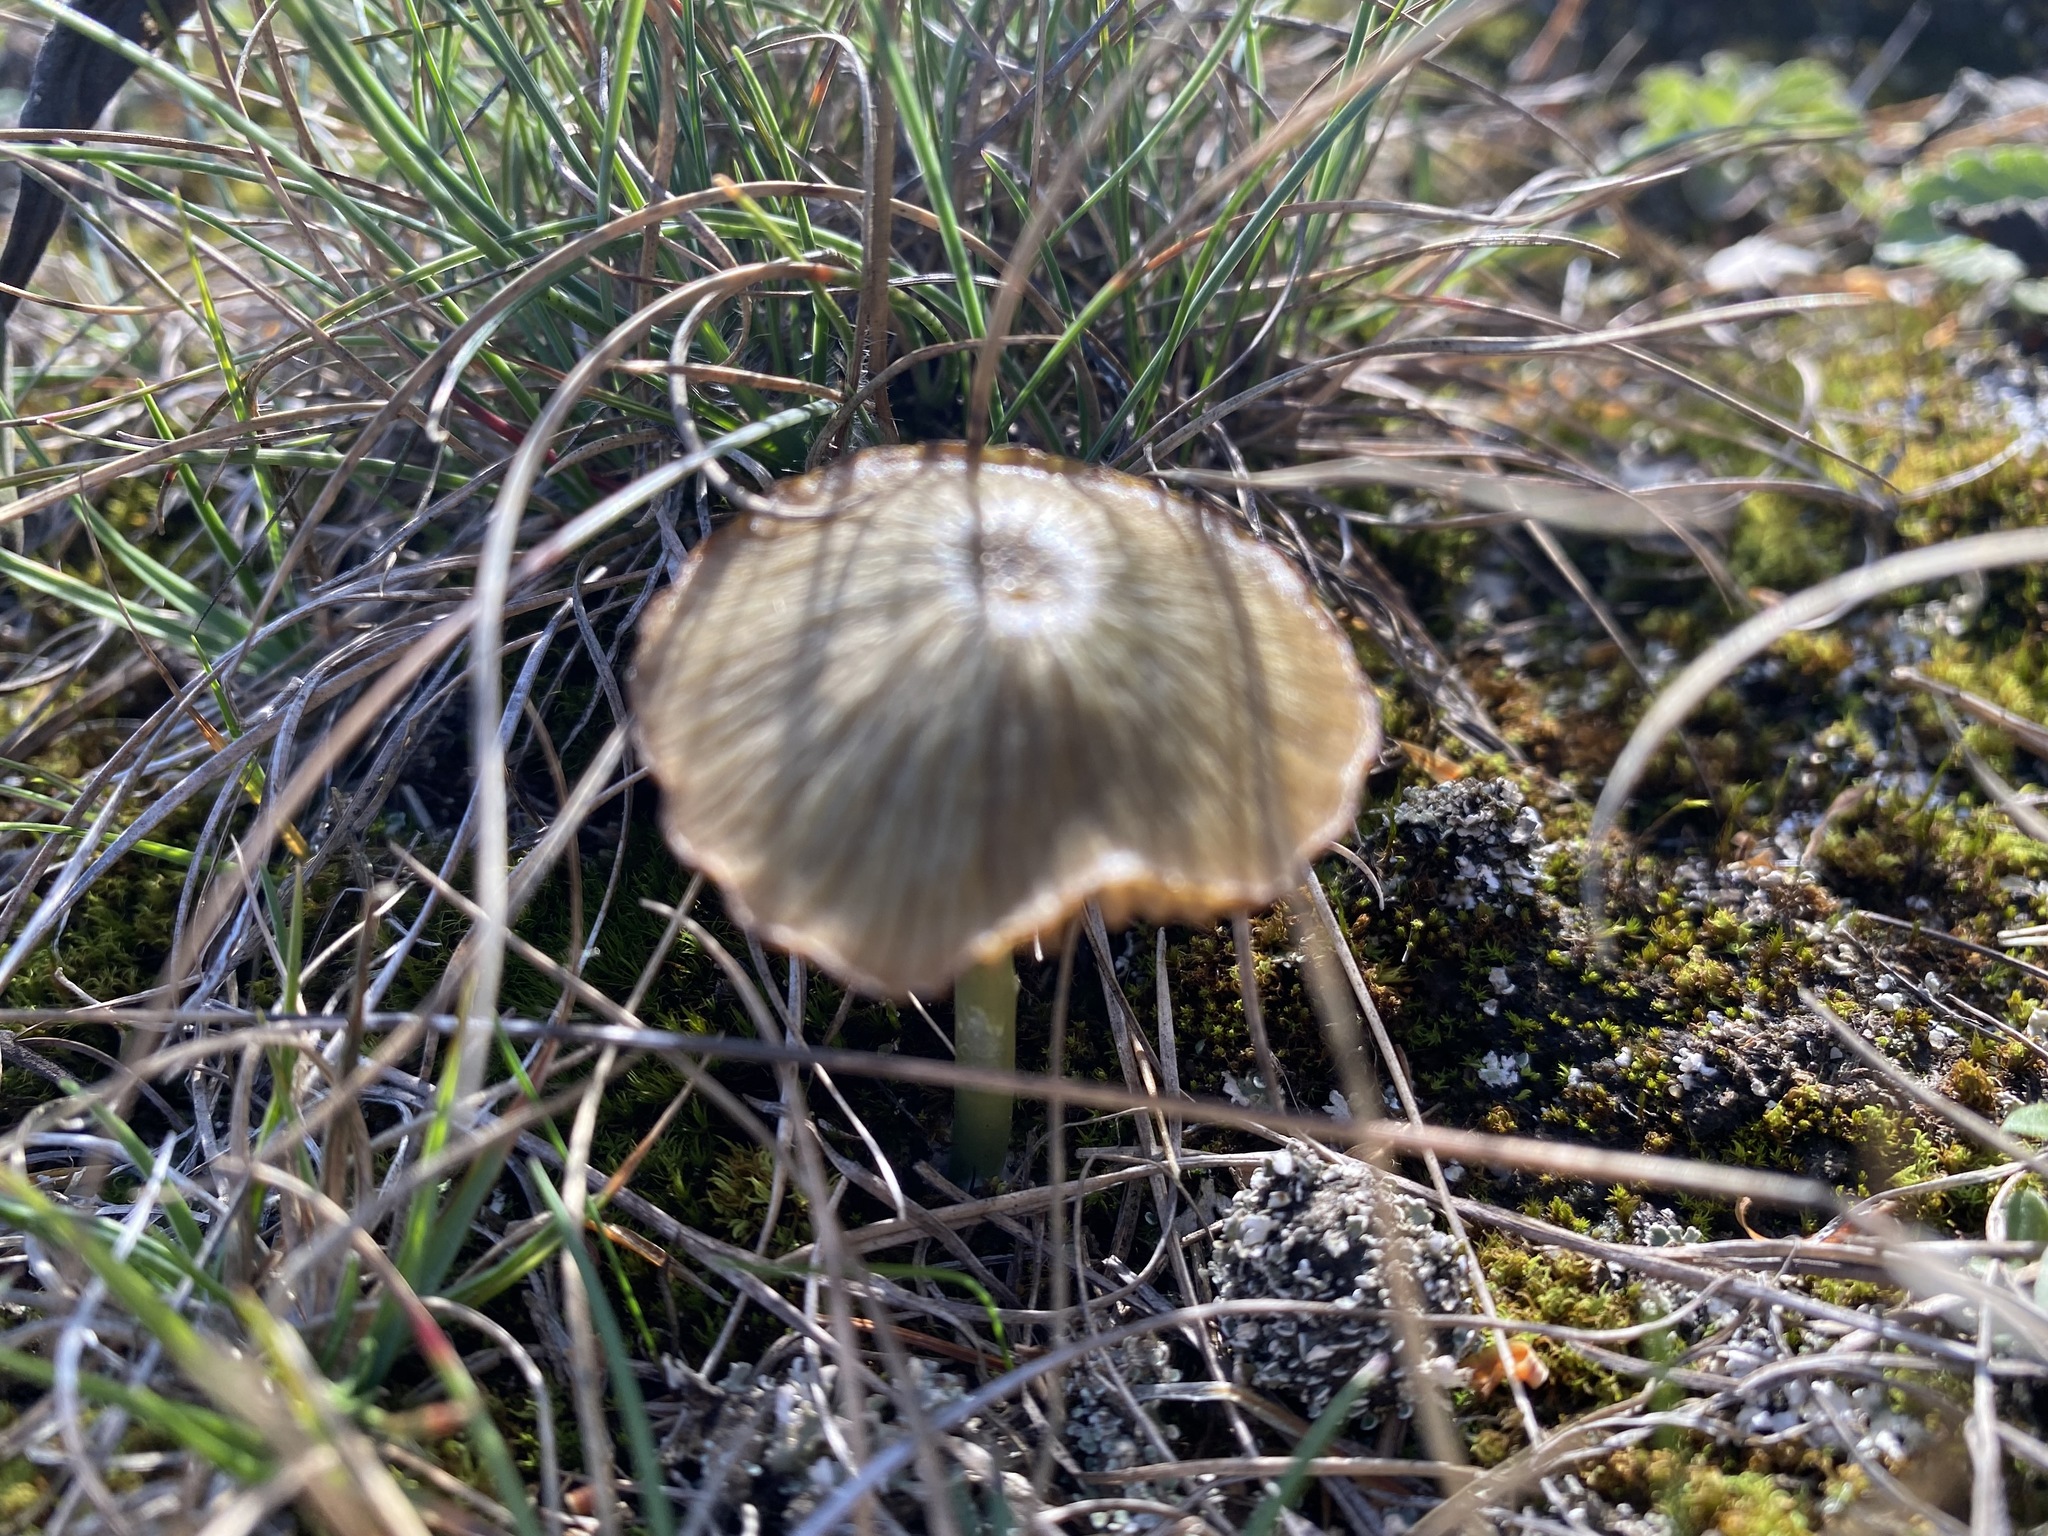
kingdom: Fungi
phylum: Basidiomycota
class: Agaricomycetes
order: Agaricales
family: Entolomataceae
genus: Entoloma
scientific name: Entoloma incanum
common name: Mousepee pinkgill
